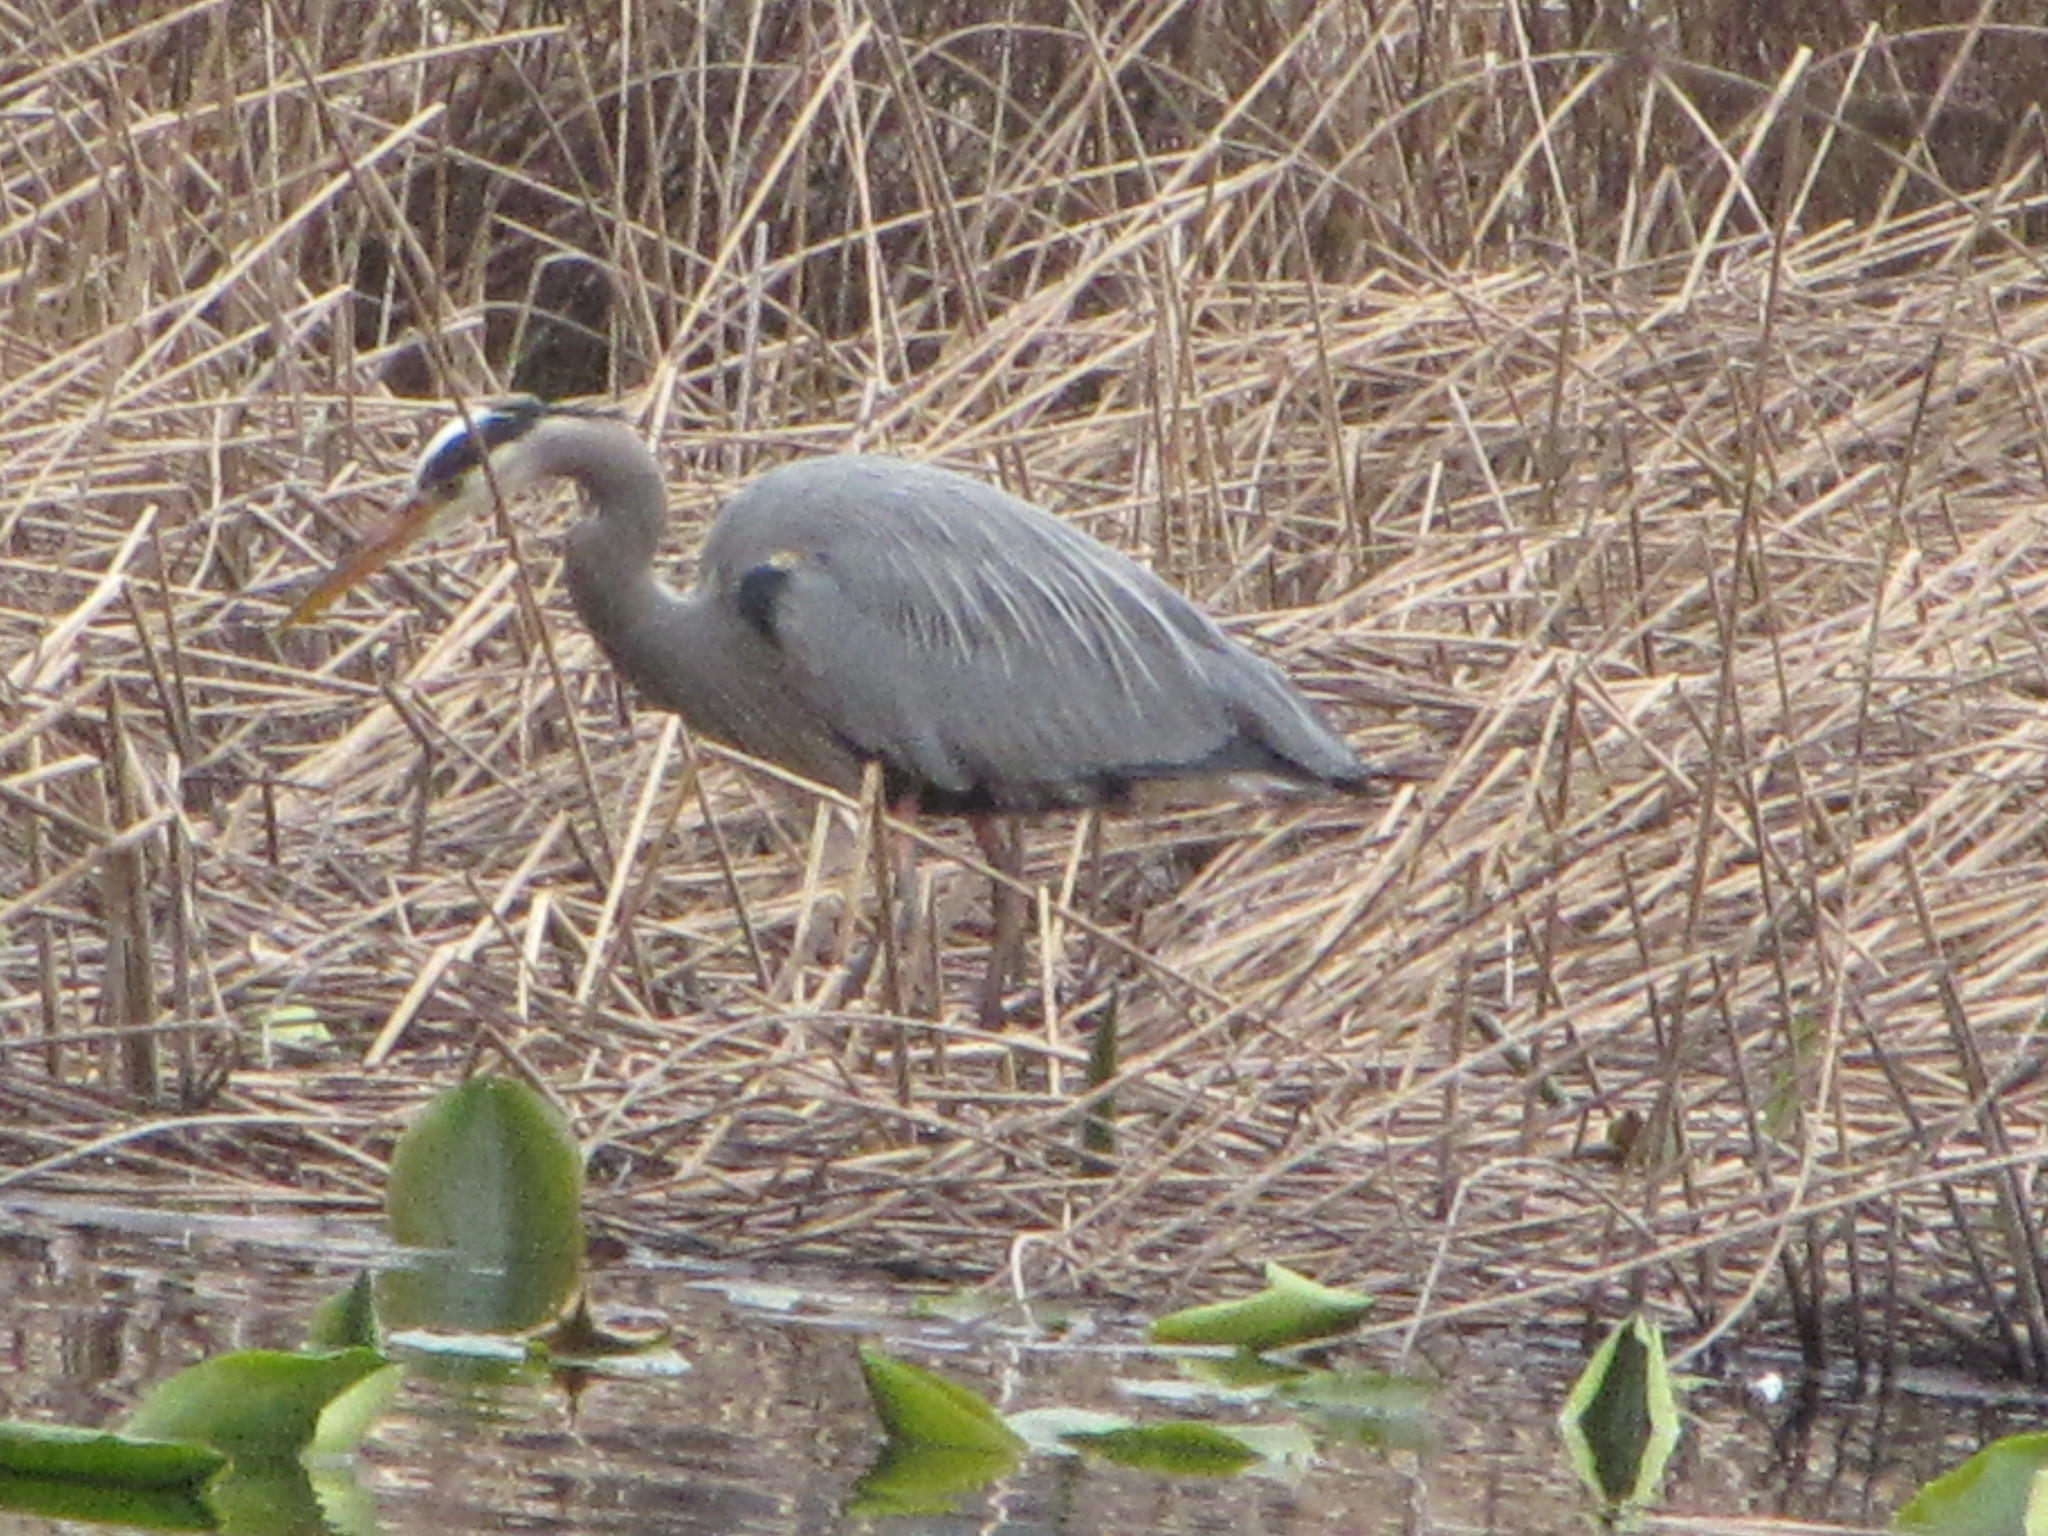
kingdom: Animalia
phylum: Chordata
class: Aves
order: Pelecaniformes
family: Ardeidae
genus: Ardea
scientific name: Ardea herodias
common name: Great blue heron
